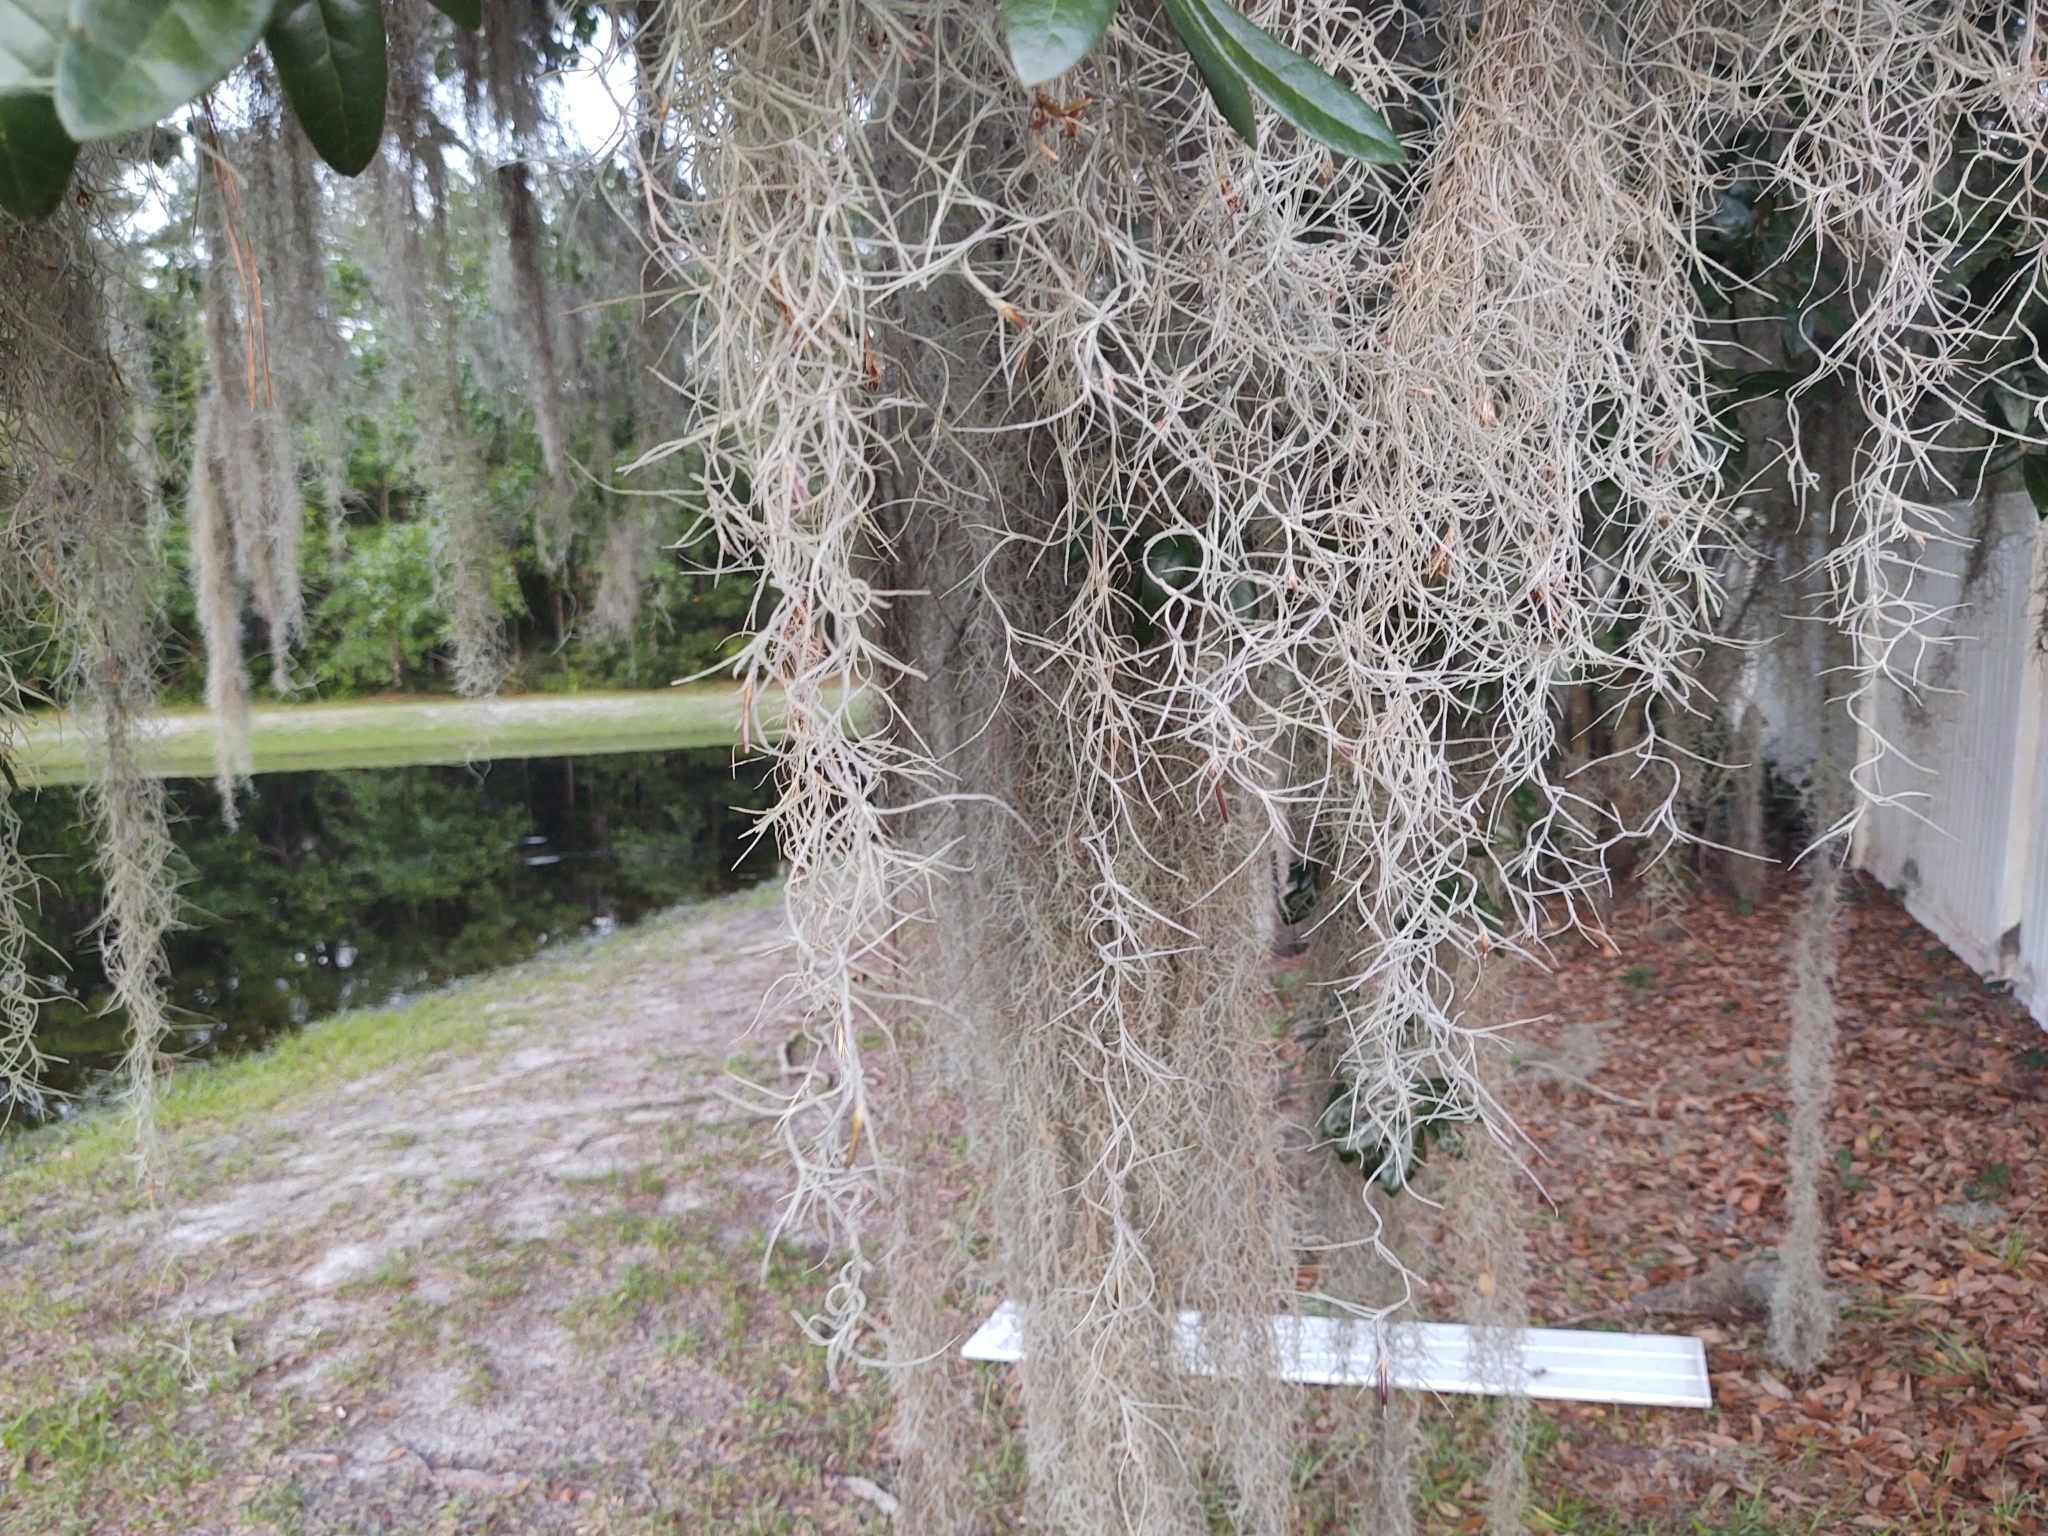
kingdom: Plantae
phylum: Tracheophyta
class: Liliopsida
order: Poales
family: Bromeliaceae
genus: Tillandsia
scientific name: Tillandsia usneoides
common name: Spanish moss
